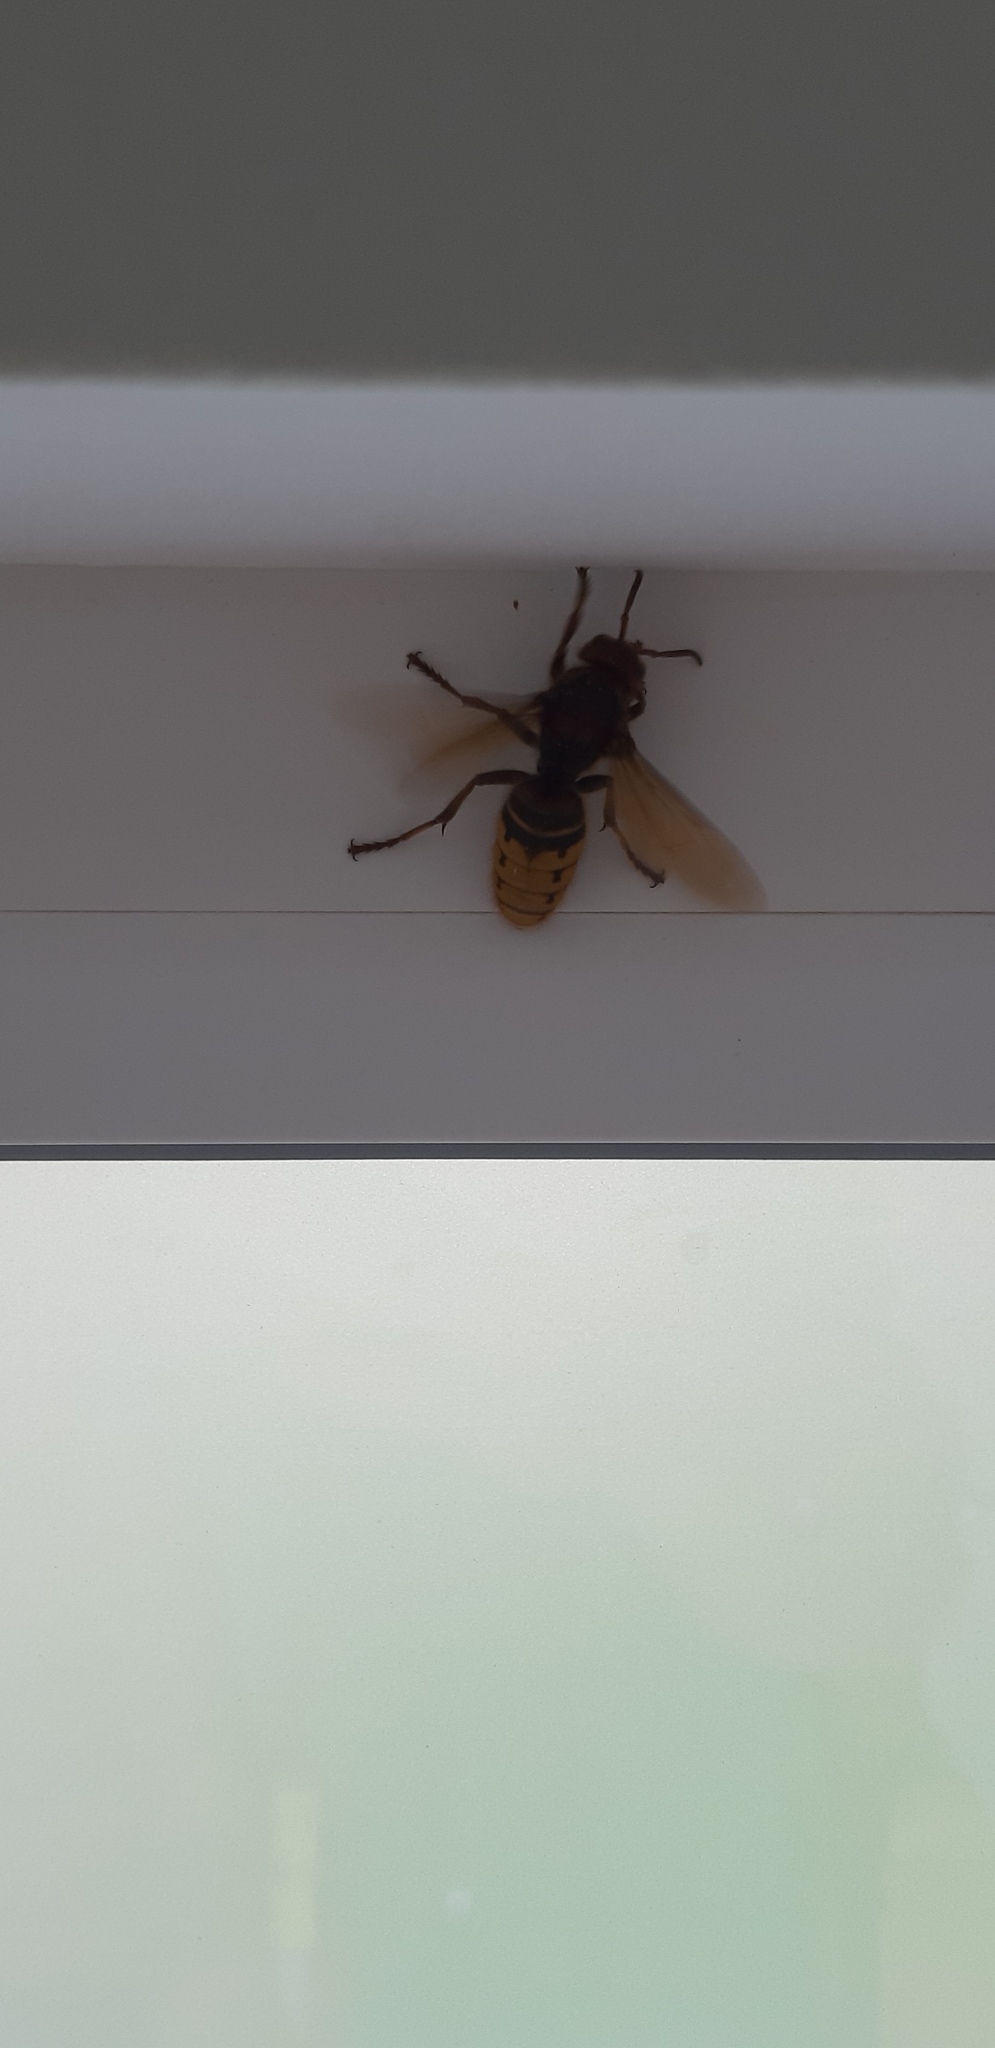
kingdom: Animalia
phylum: Arthropoda
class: Insecta
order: Hymenoptera
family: Vespidae
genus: Vespa
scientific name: Vespa crabro
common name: Hornet
